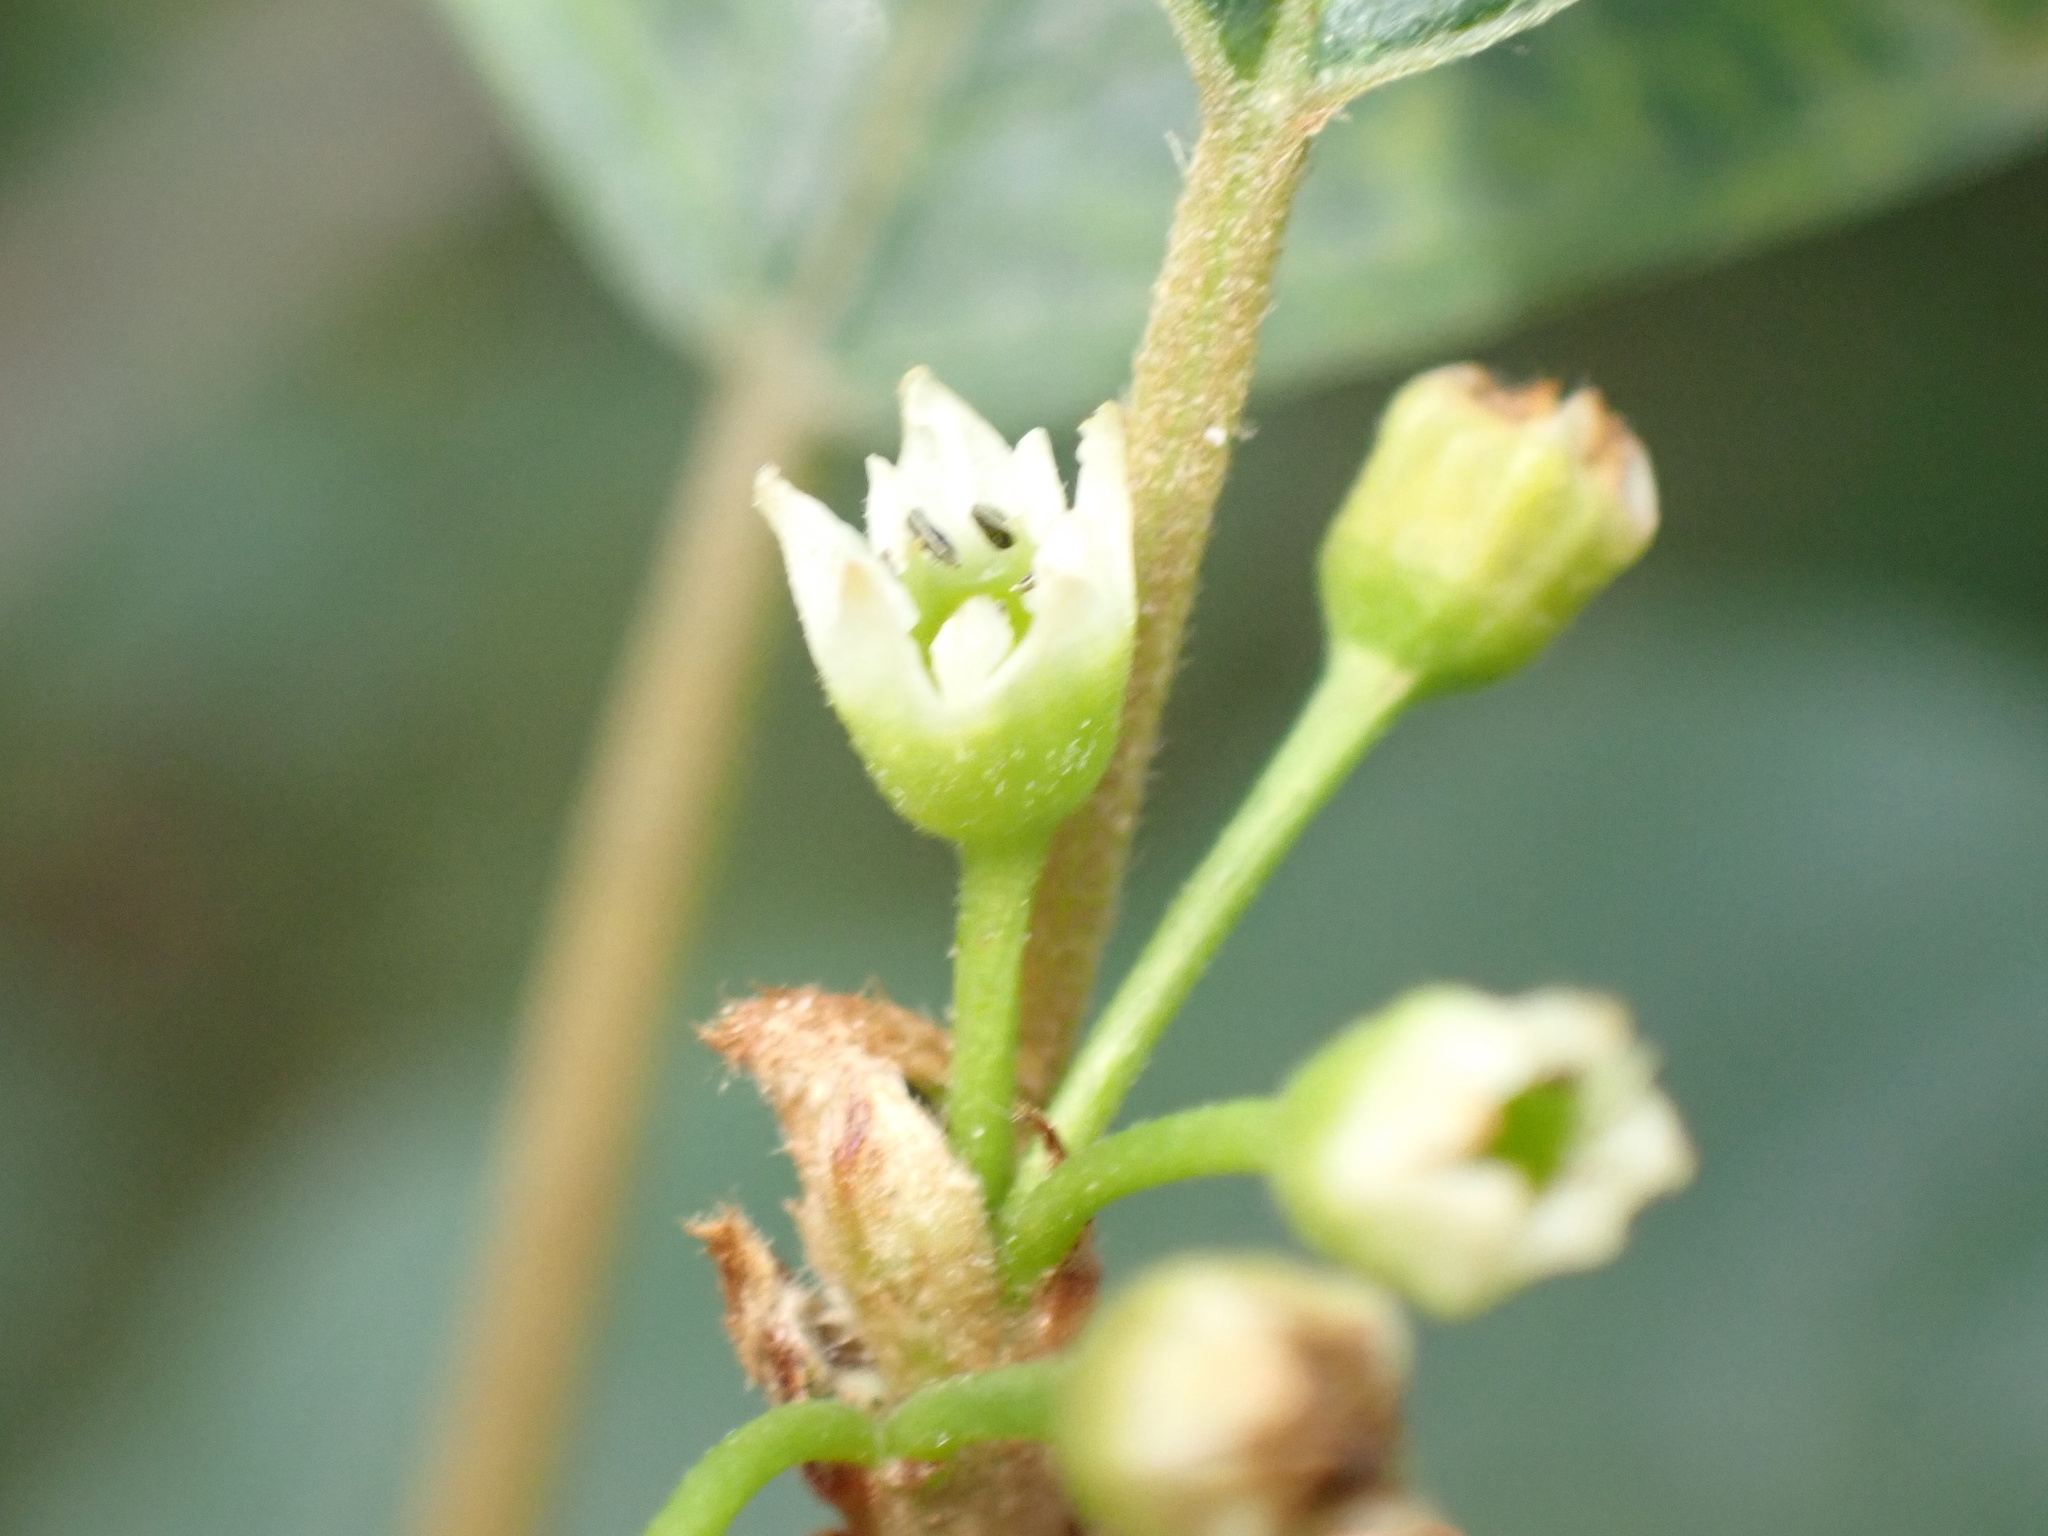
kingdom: Plantae
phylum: Tracheophyta
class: Magnoliopsida
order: Rosales
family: Rhamnaceae
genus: Frangula
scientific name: Frangula alnus
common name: Alder buckthorn
